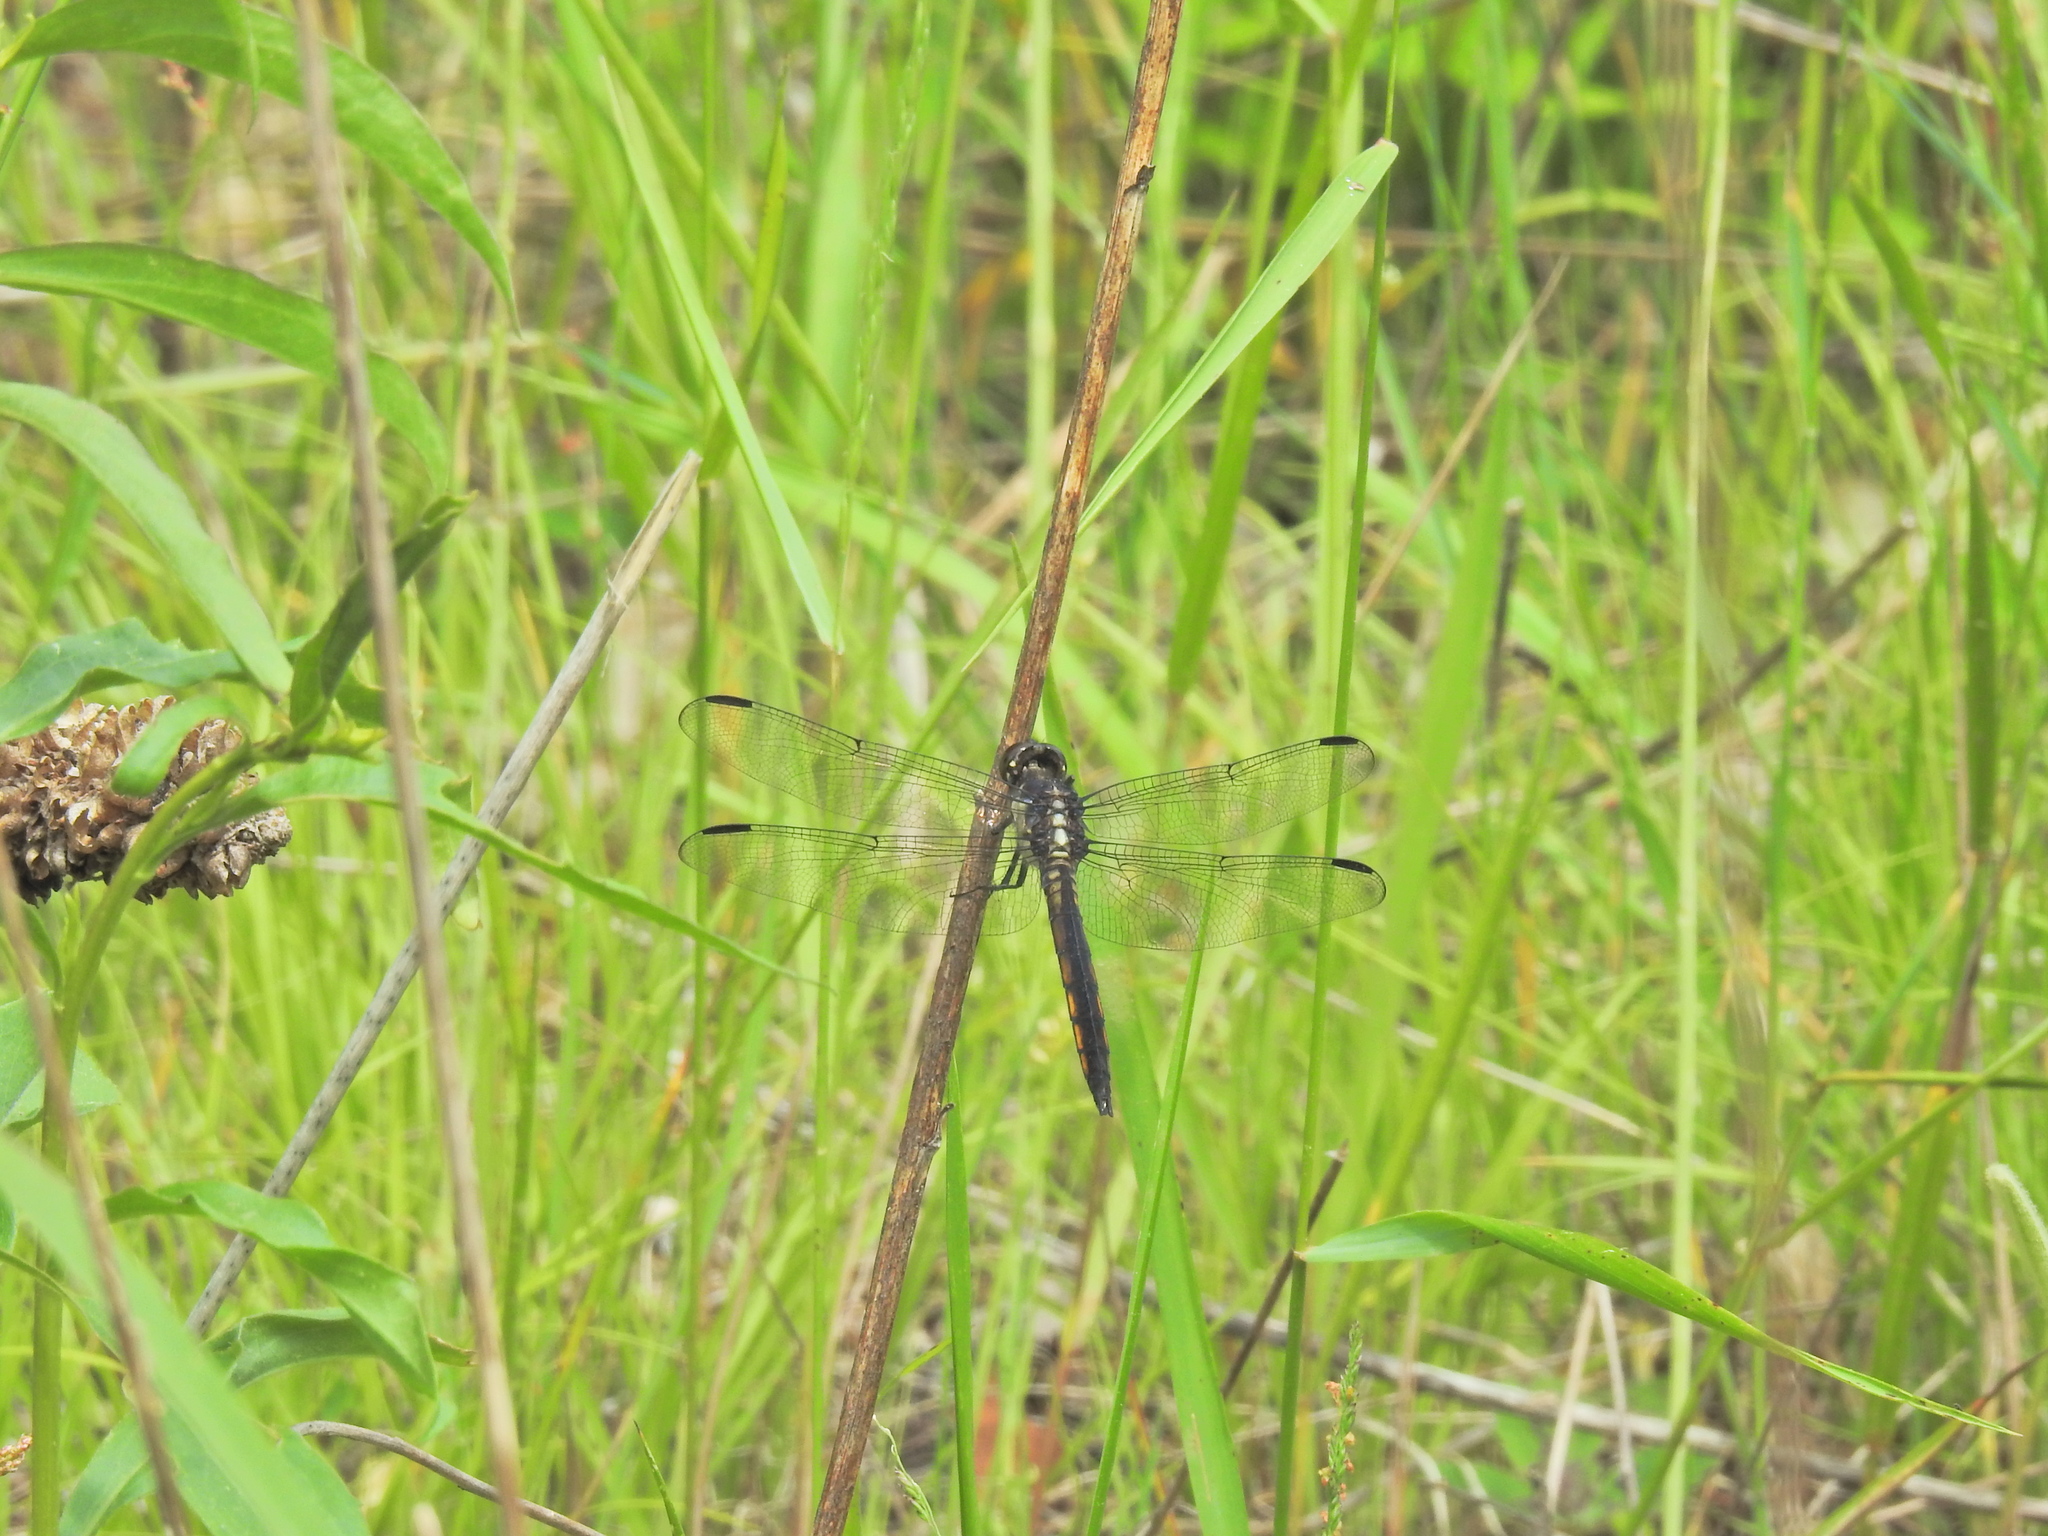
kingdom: Animalia
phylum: Arthropoda
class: Insecta
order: Odonata
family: Libellulidae
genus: Libellula
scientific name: Libellula incesta
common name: Slaty skimmer
